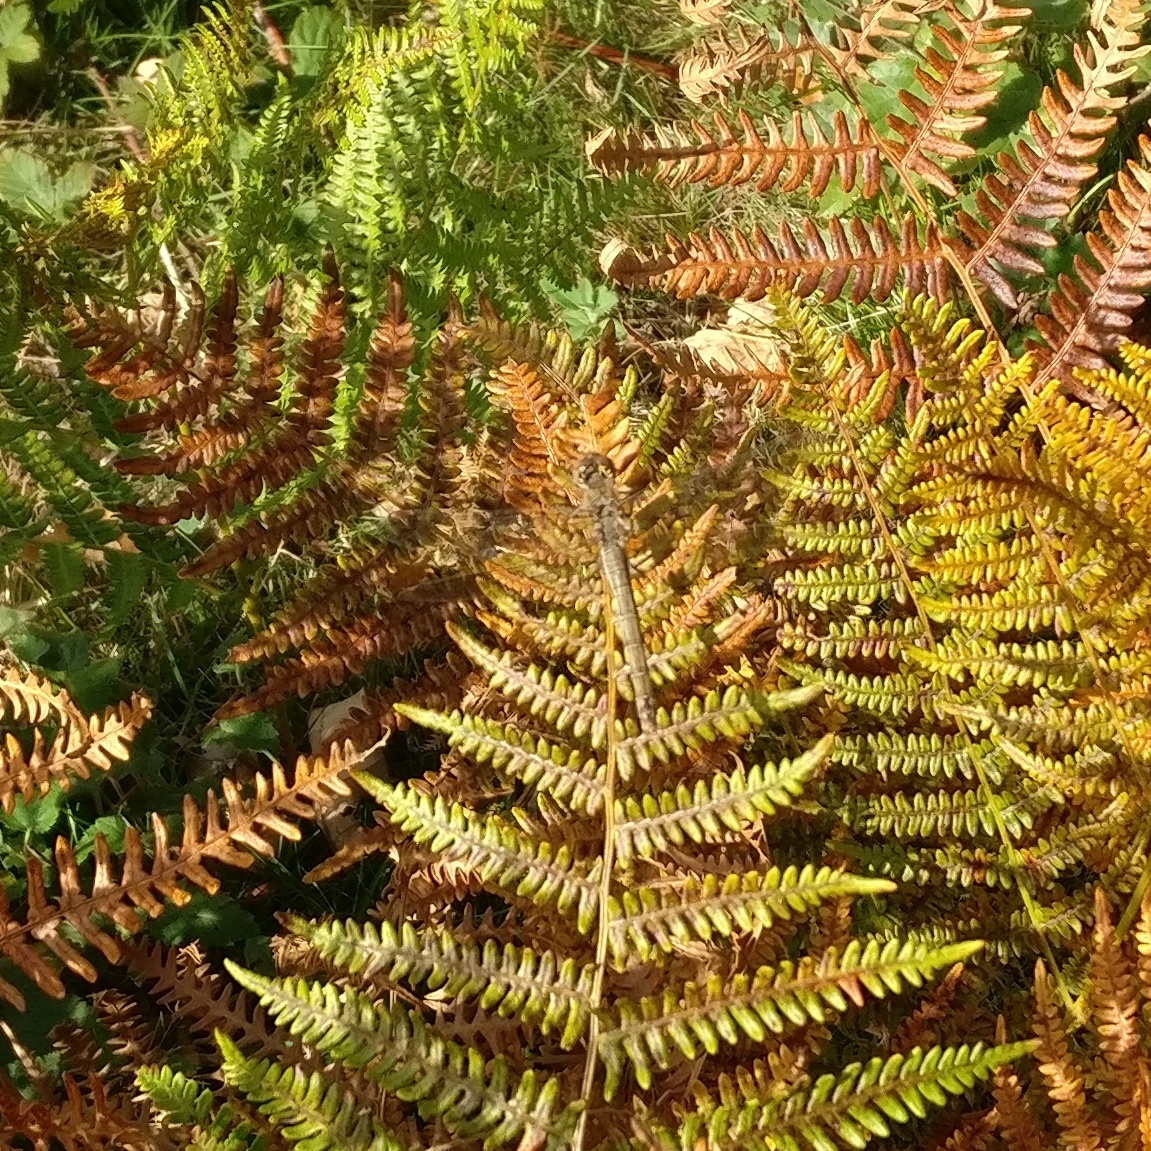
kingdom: Animalia
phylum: Arthropoda
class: Insecta
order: Odonata
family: Libellulidae
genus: Sympetrum
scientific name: Sympetrum
